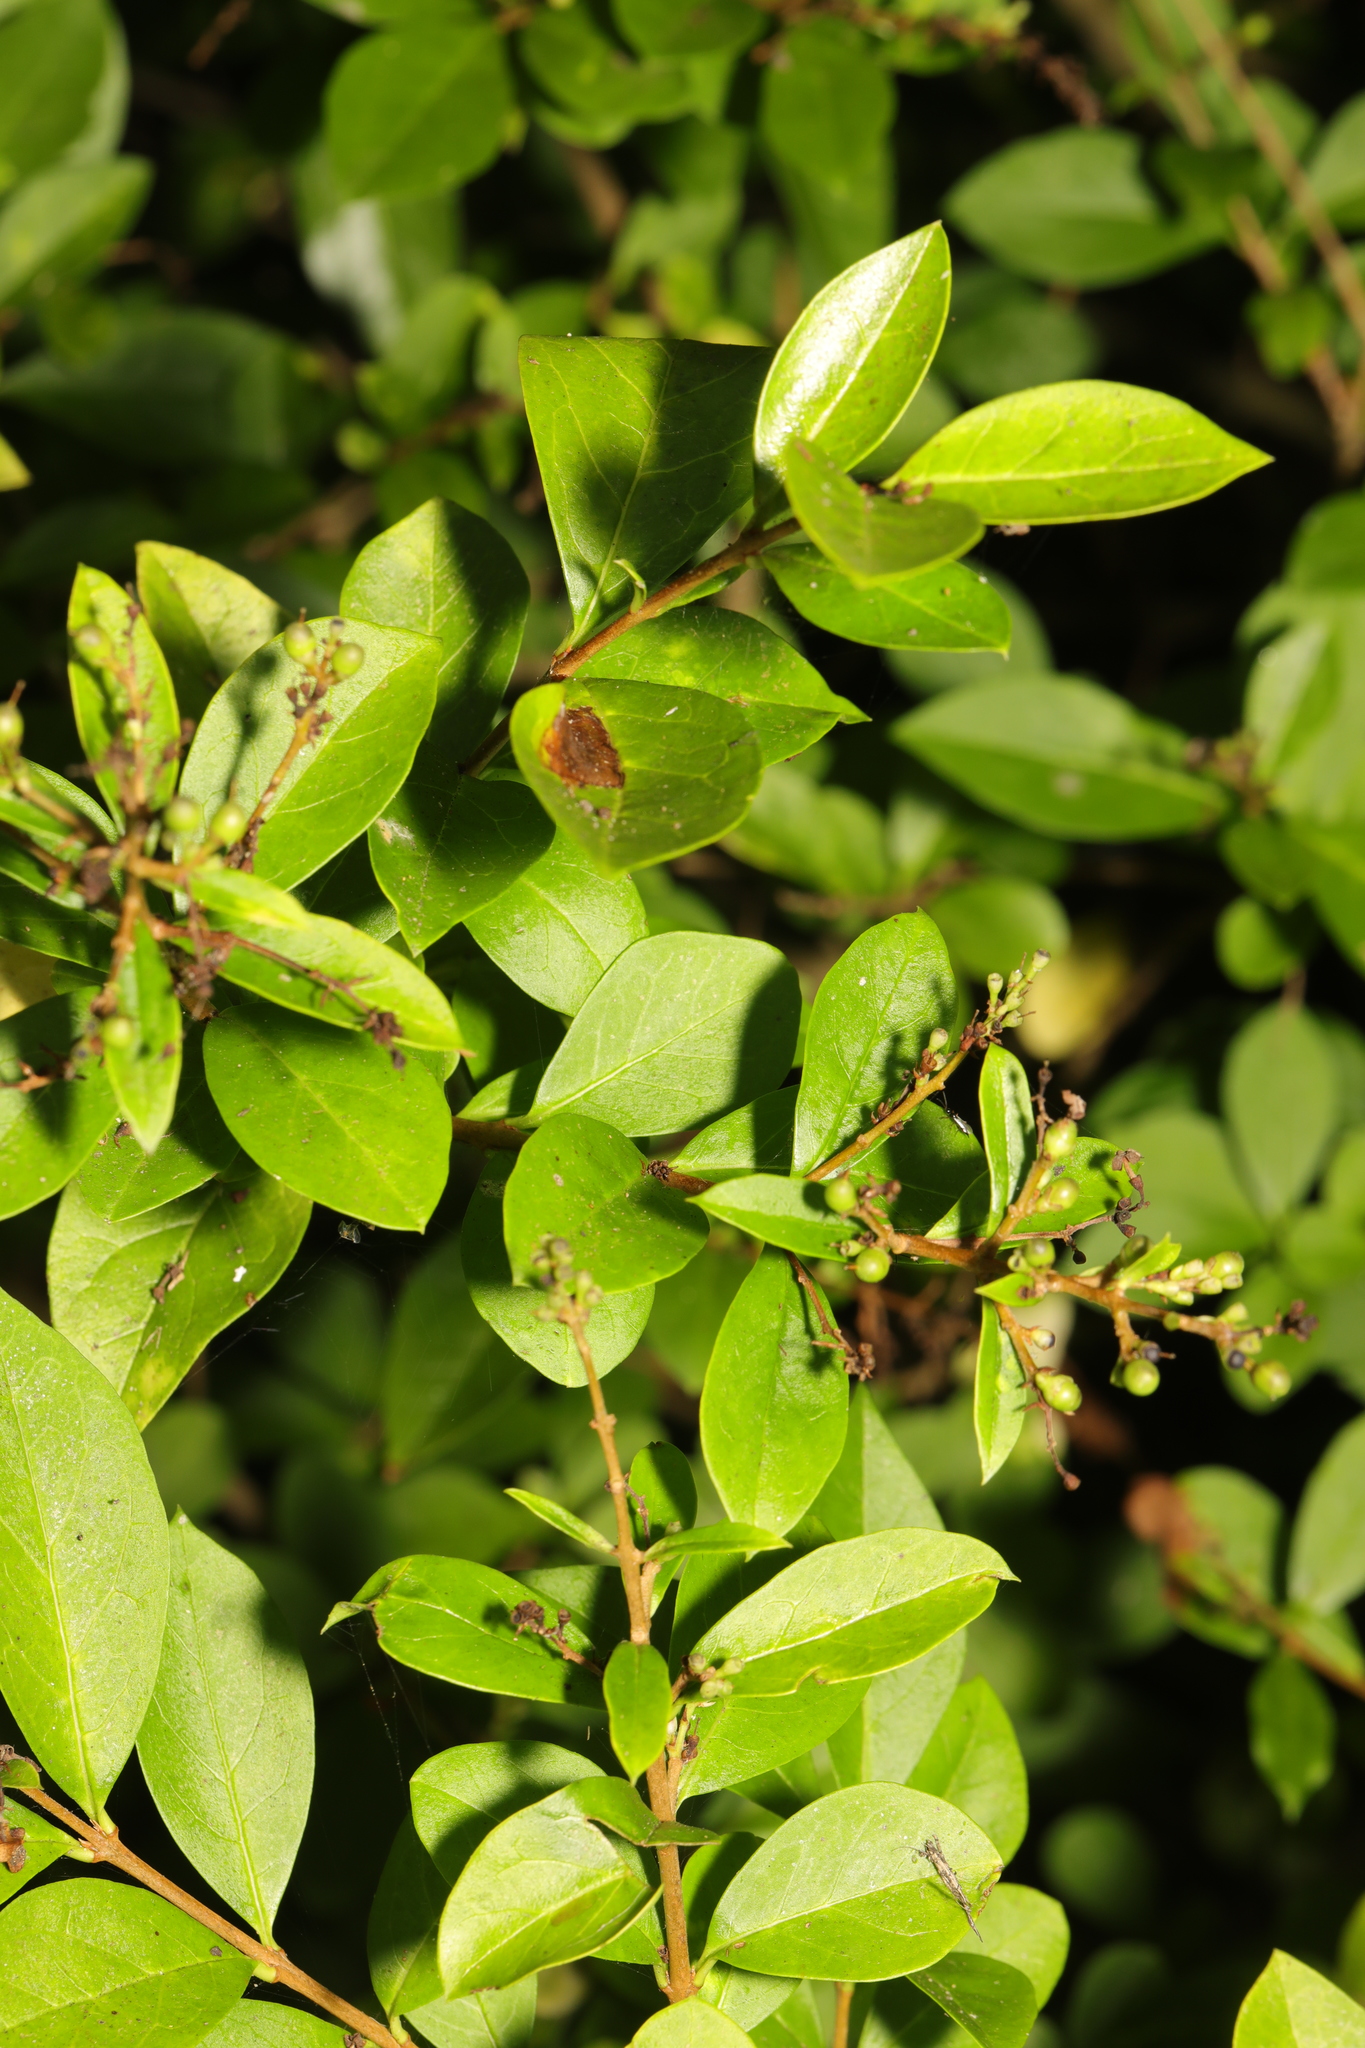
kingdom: Plantae
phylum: Tracheophyta
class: Magnoliopsida
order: Lamiales
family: Oleaceae
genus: Ligustrum
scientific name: Ligustrum ovalifolium
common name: California privet
